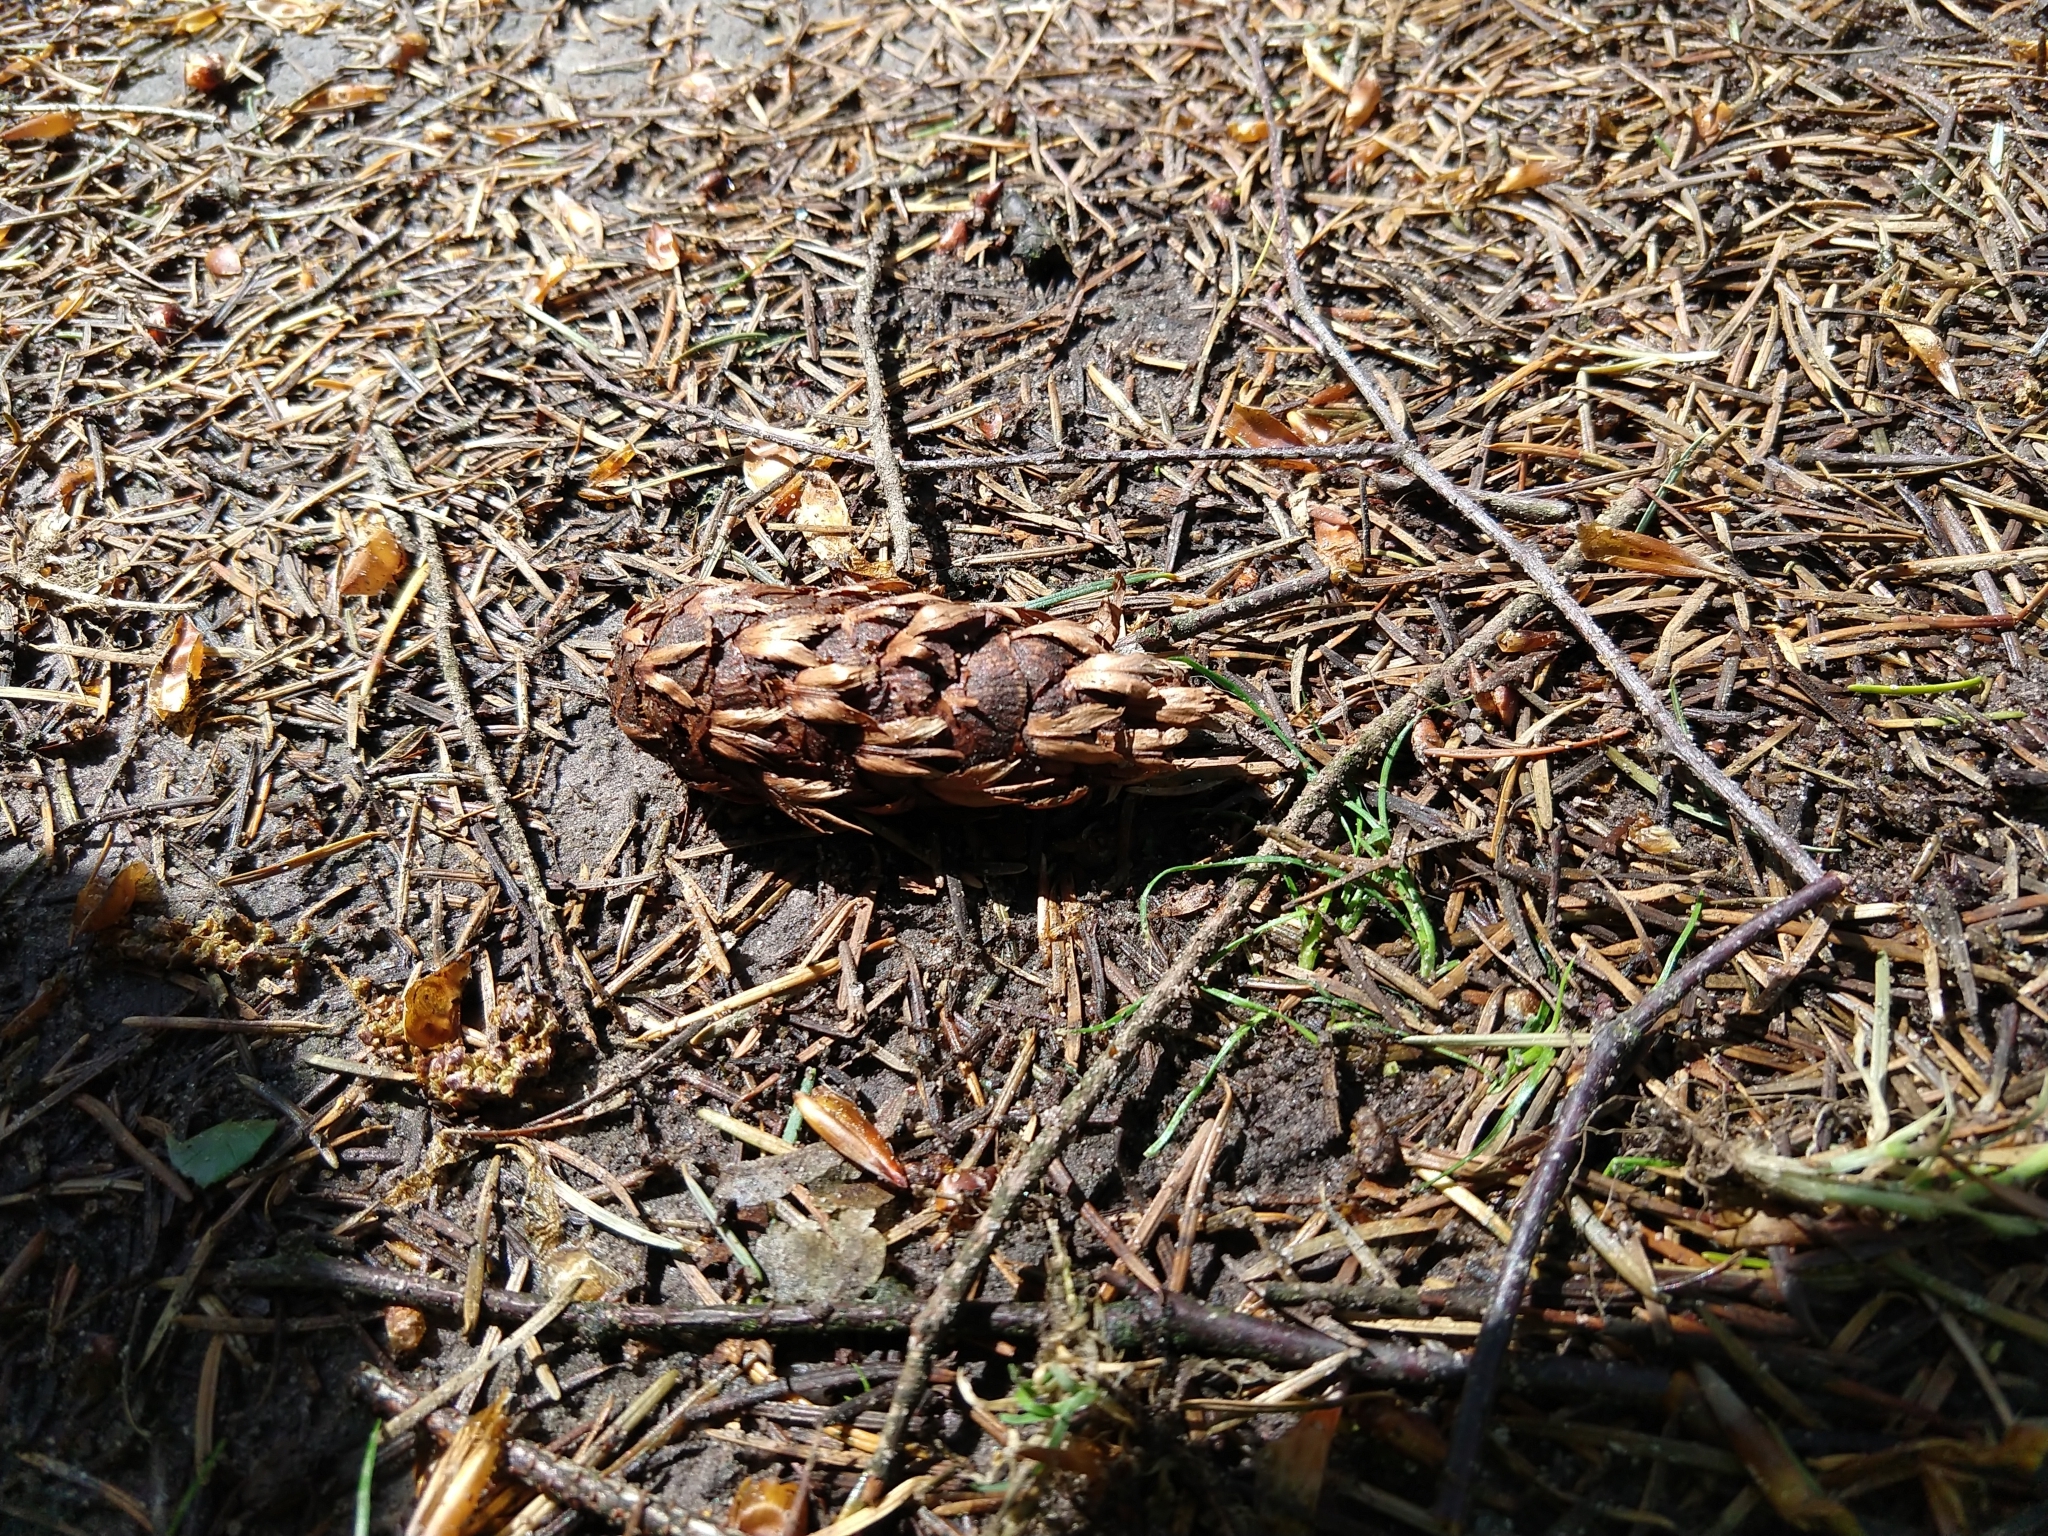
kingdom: Plantae
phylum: Tracheophyta
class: Pinopsida
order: Pinales
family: Pinaceae
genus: Pseudotsuga
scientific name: Pseudotsuga menziesii
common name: Douglas fir
